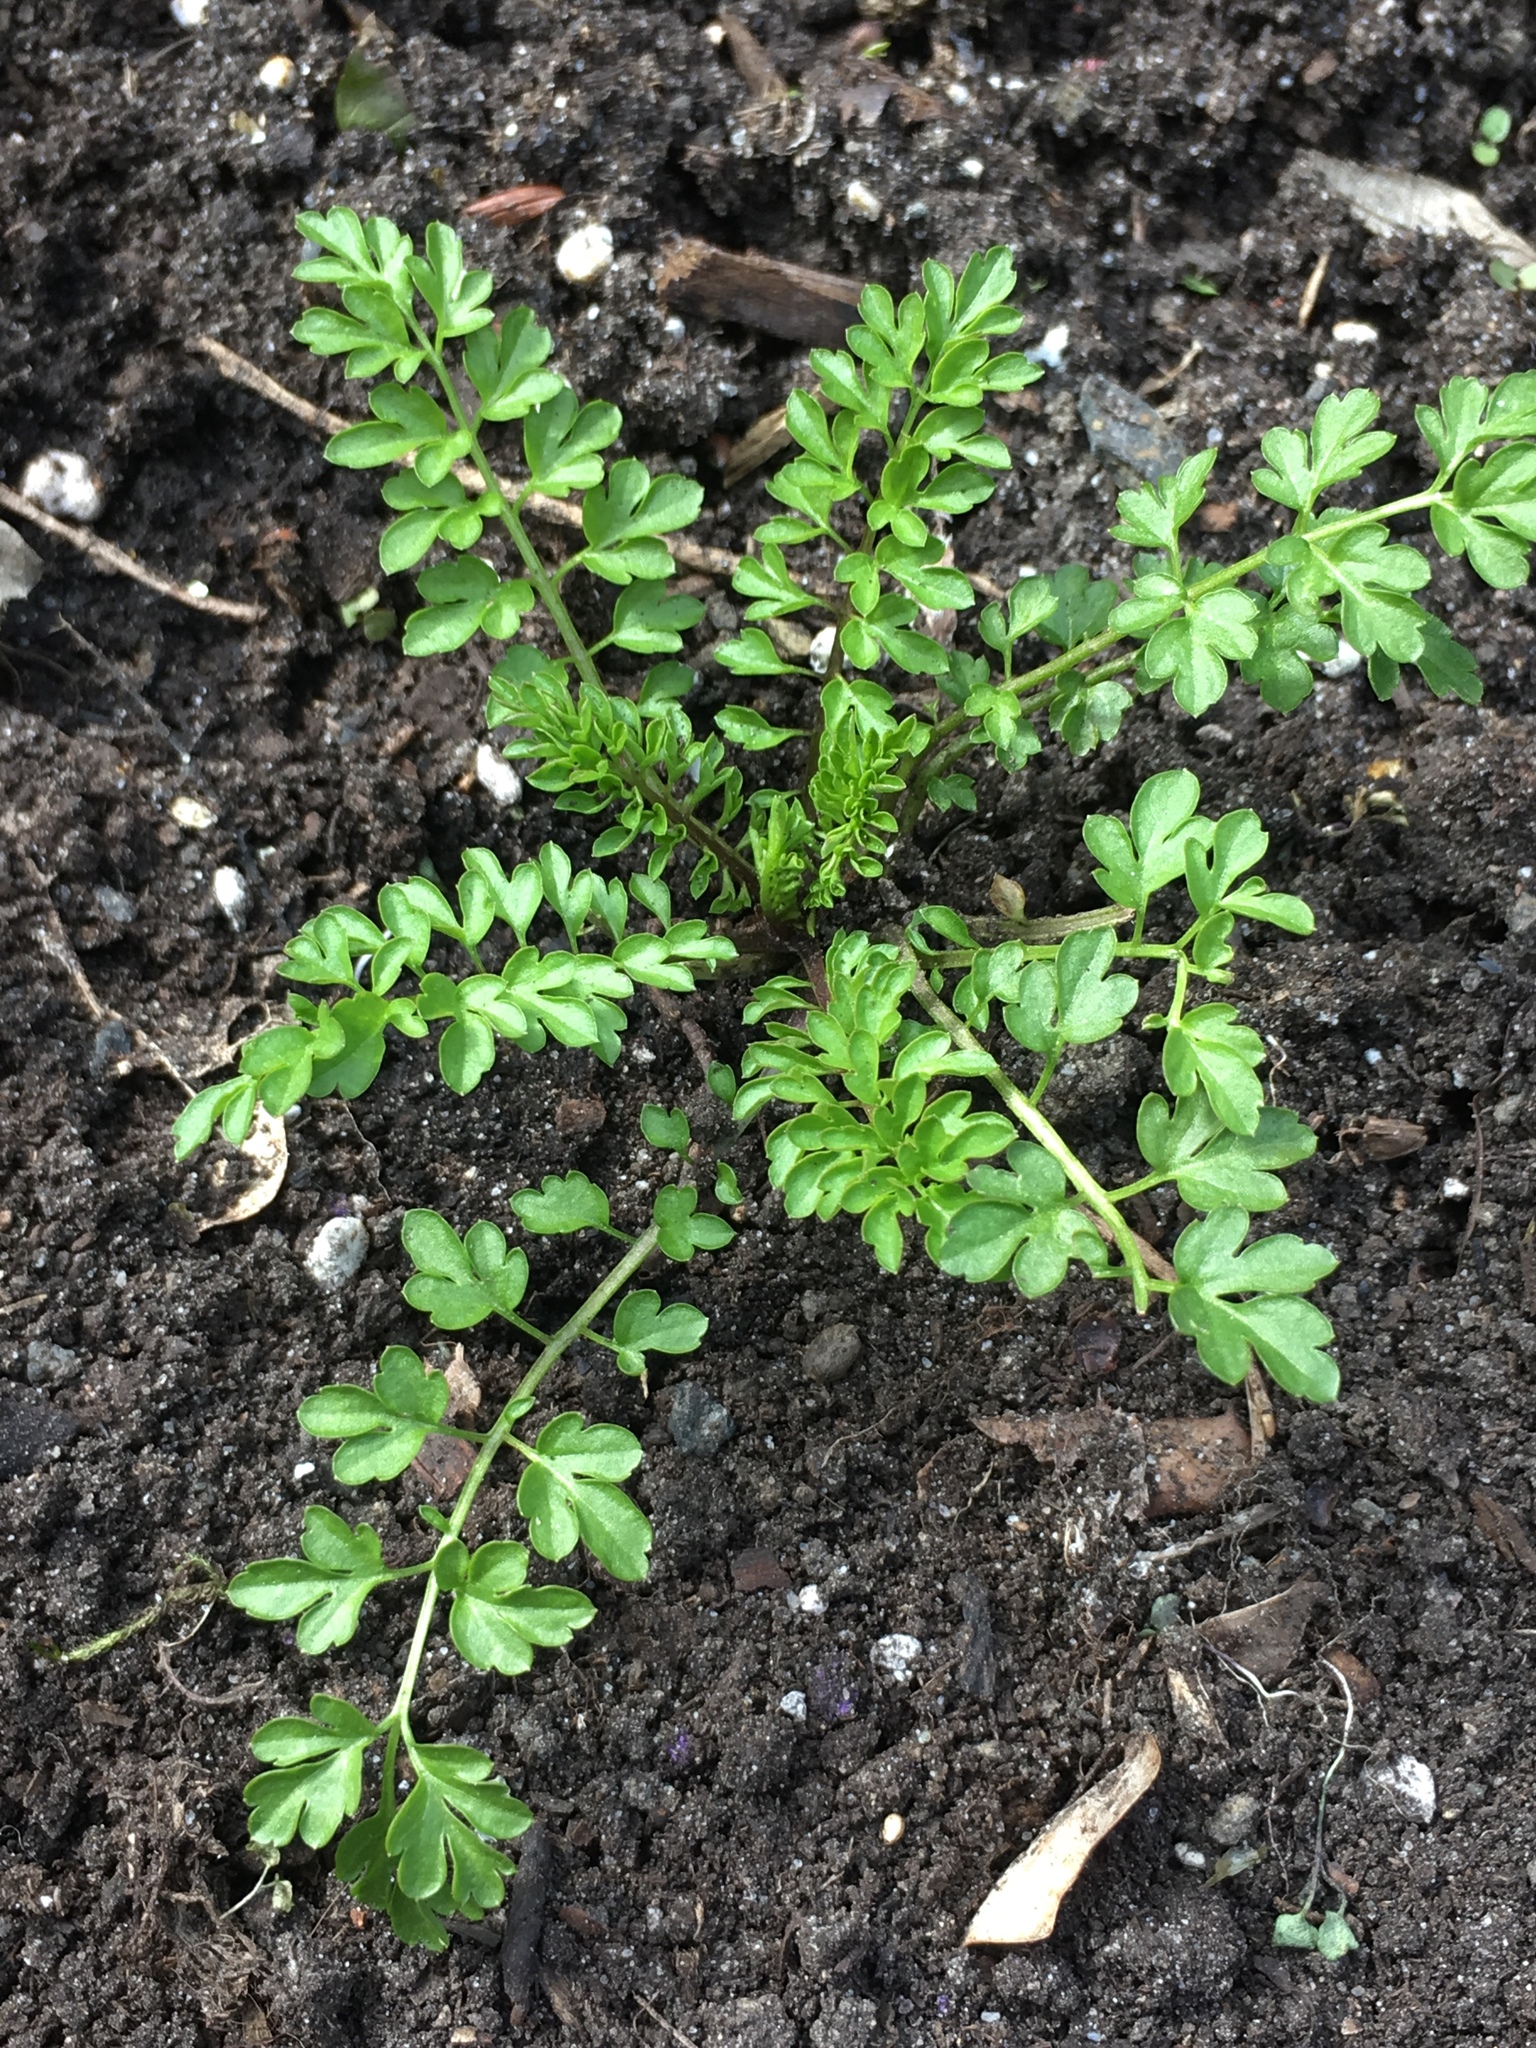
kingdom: Plantae
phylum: Tracheophyta
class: Magnoliopsida
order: Brassicales
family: Brassicaceae
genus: Cardamine
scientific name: Cardamine impatiens
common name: Narrow-leaved bitter-cress
